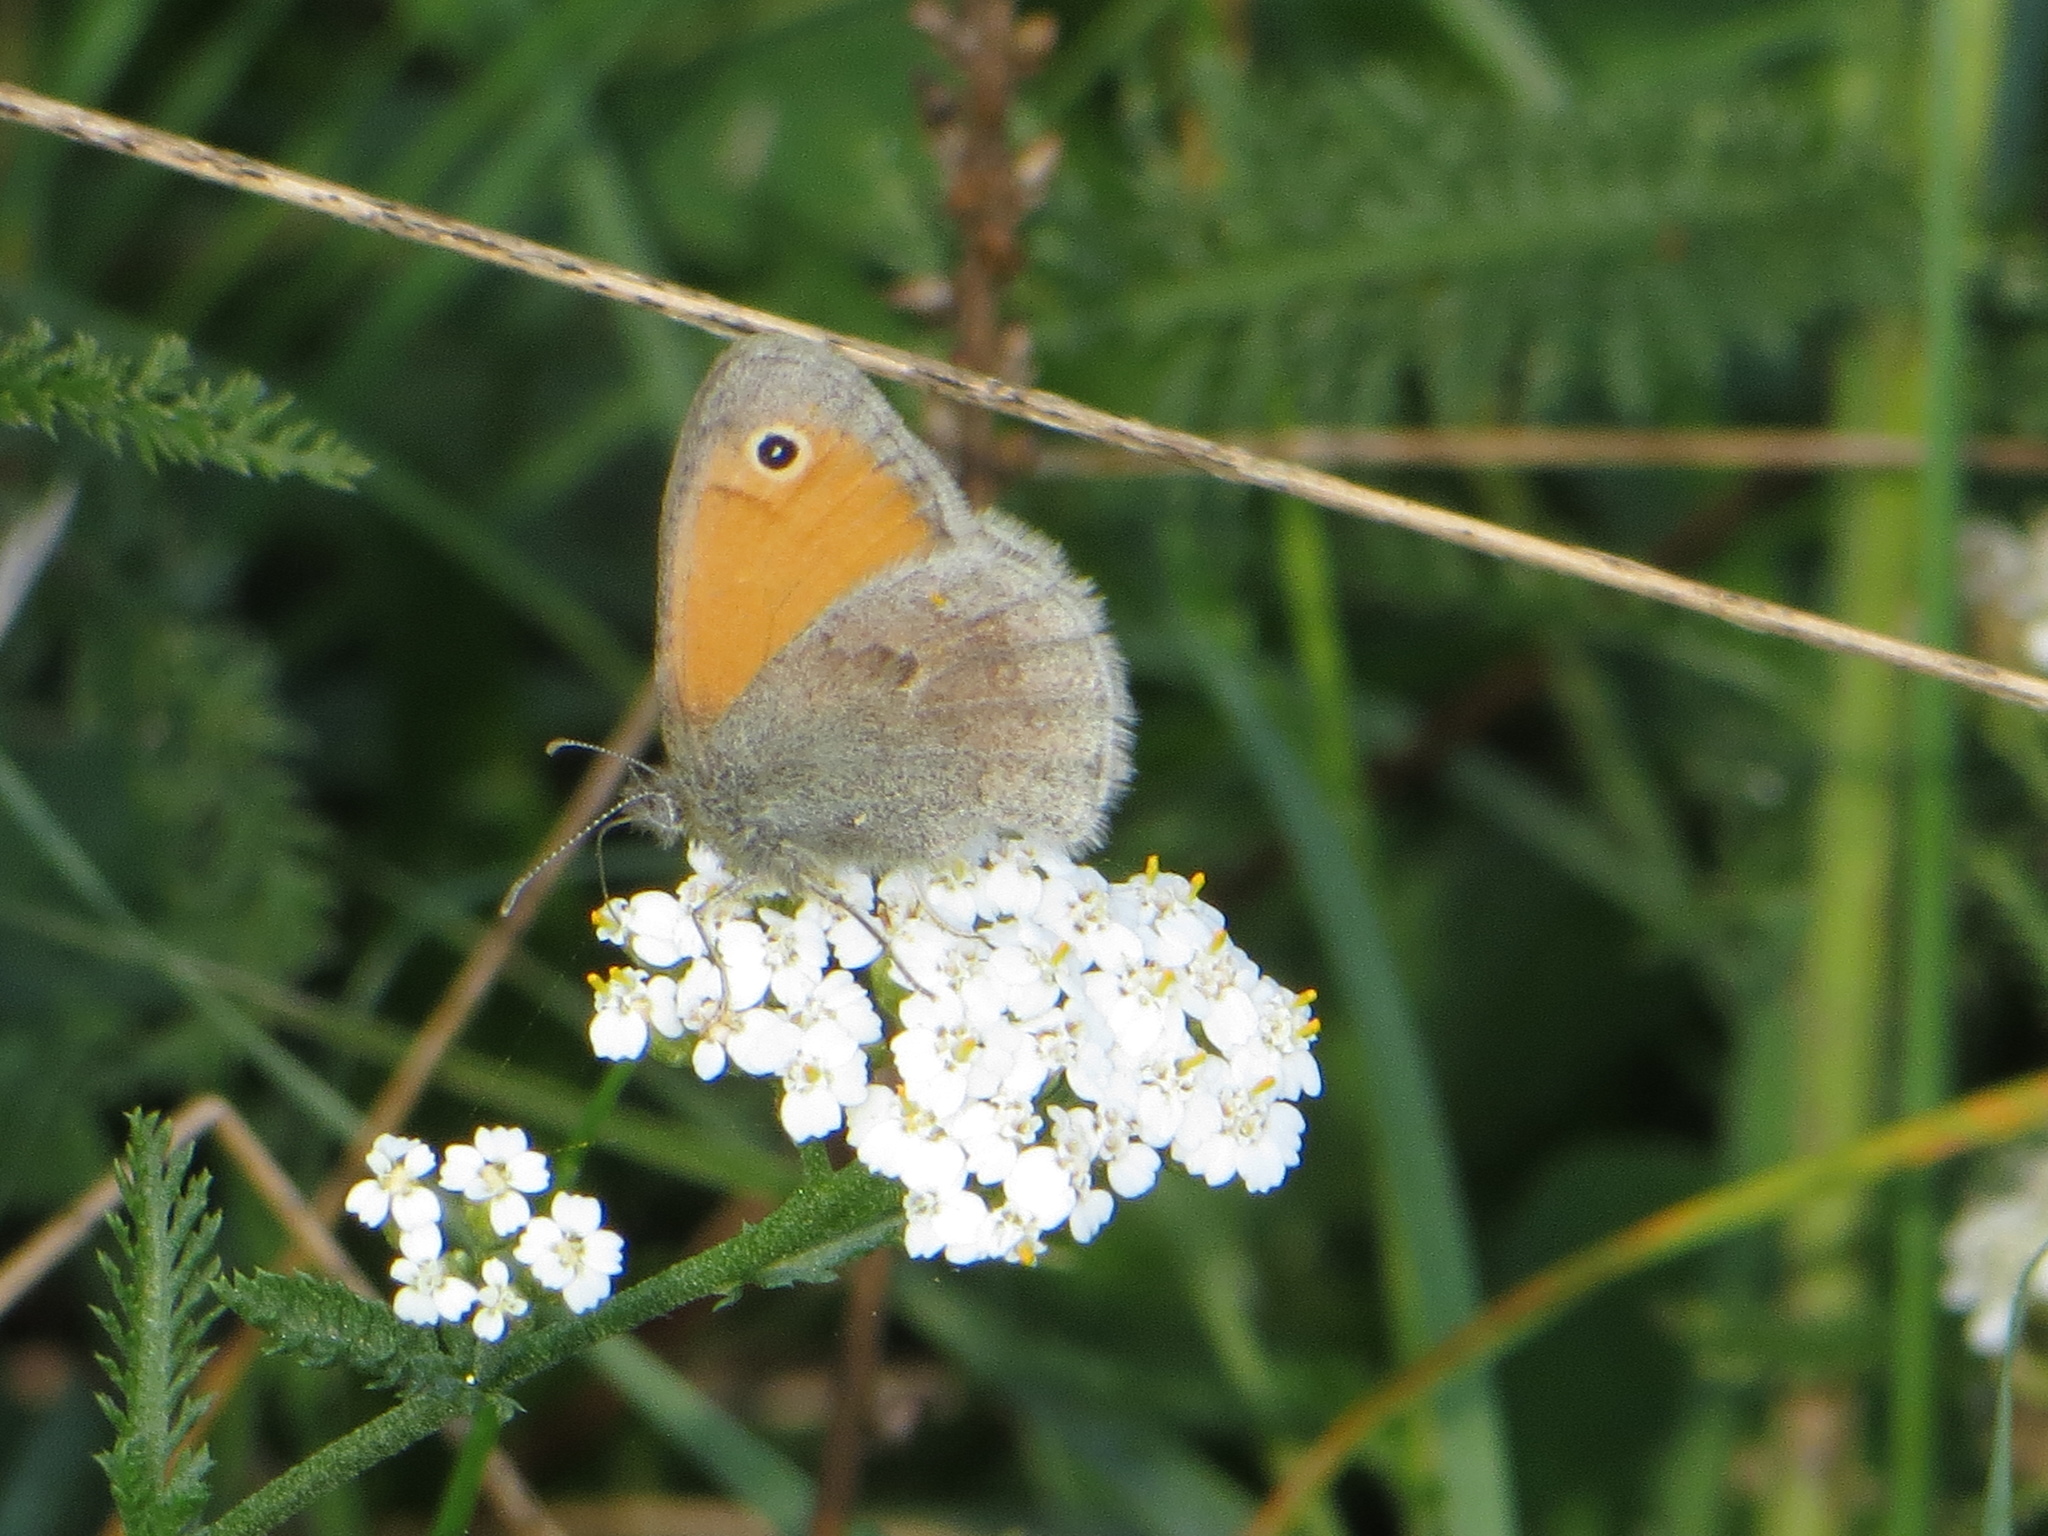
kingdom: Animalia
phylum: Arthropoda
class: Insecta
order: Lepidoptera
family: Nymphalidae
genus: Coenonympha
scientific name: Coenonympha pamphilus
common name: Small heath
